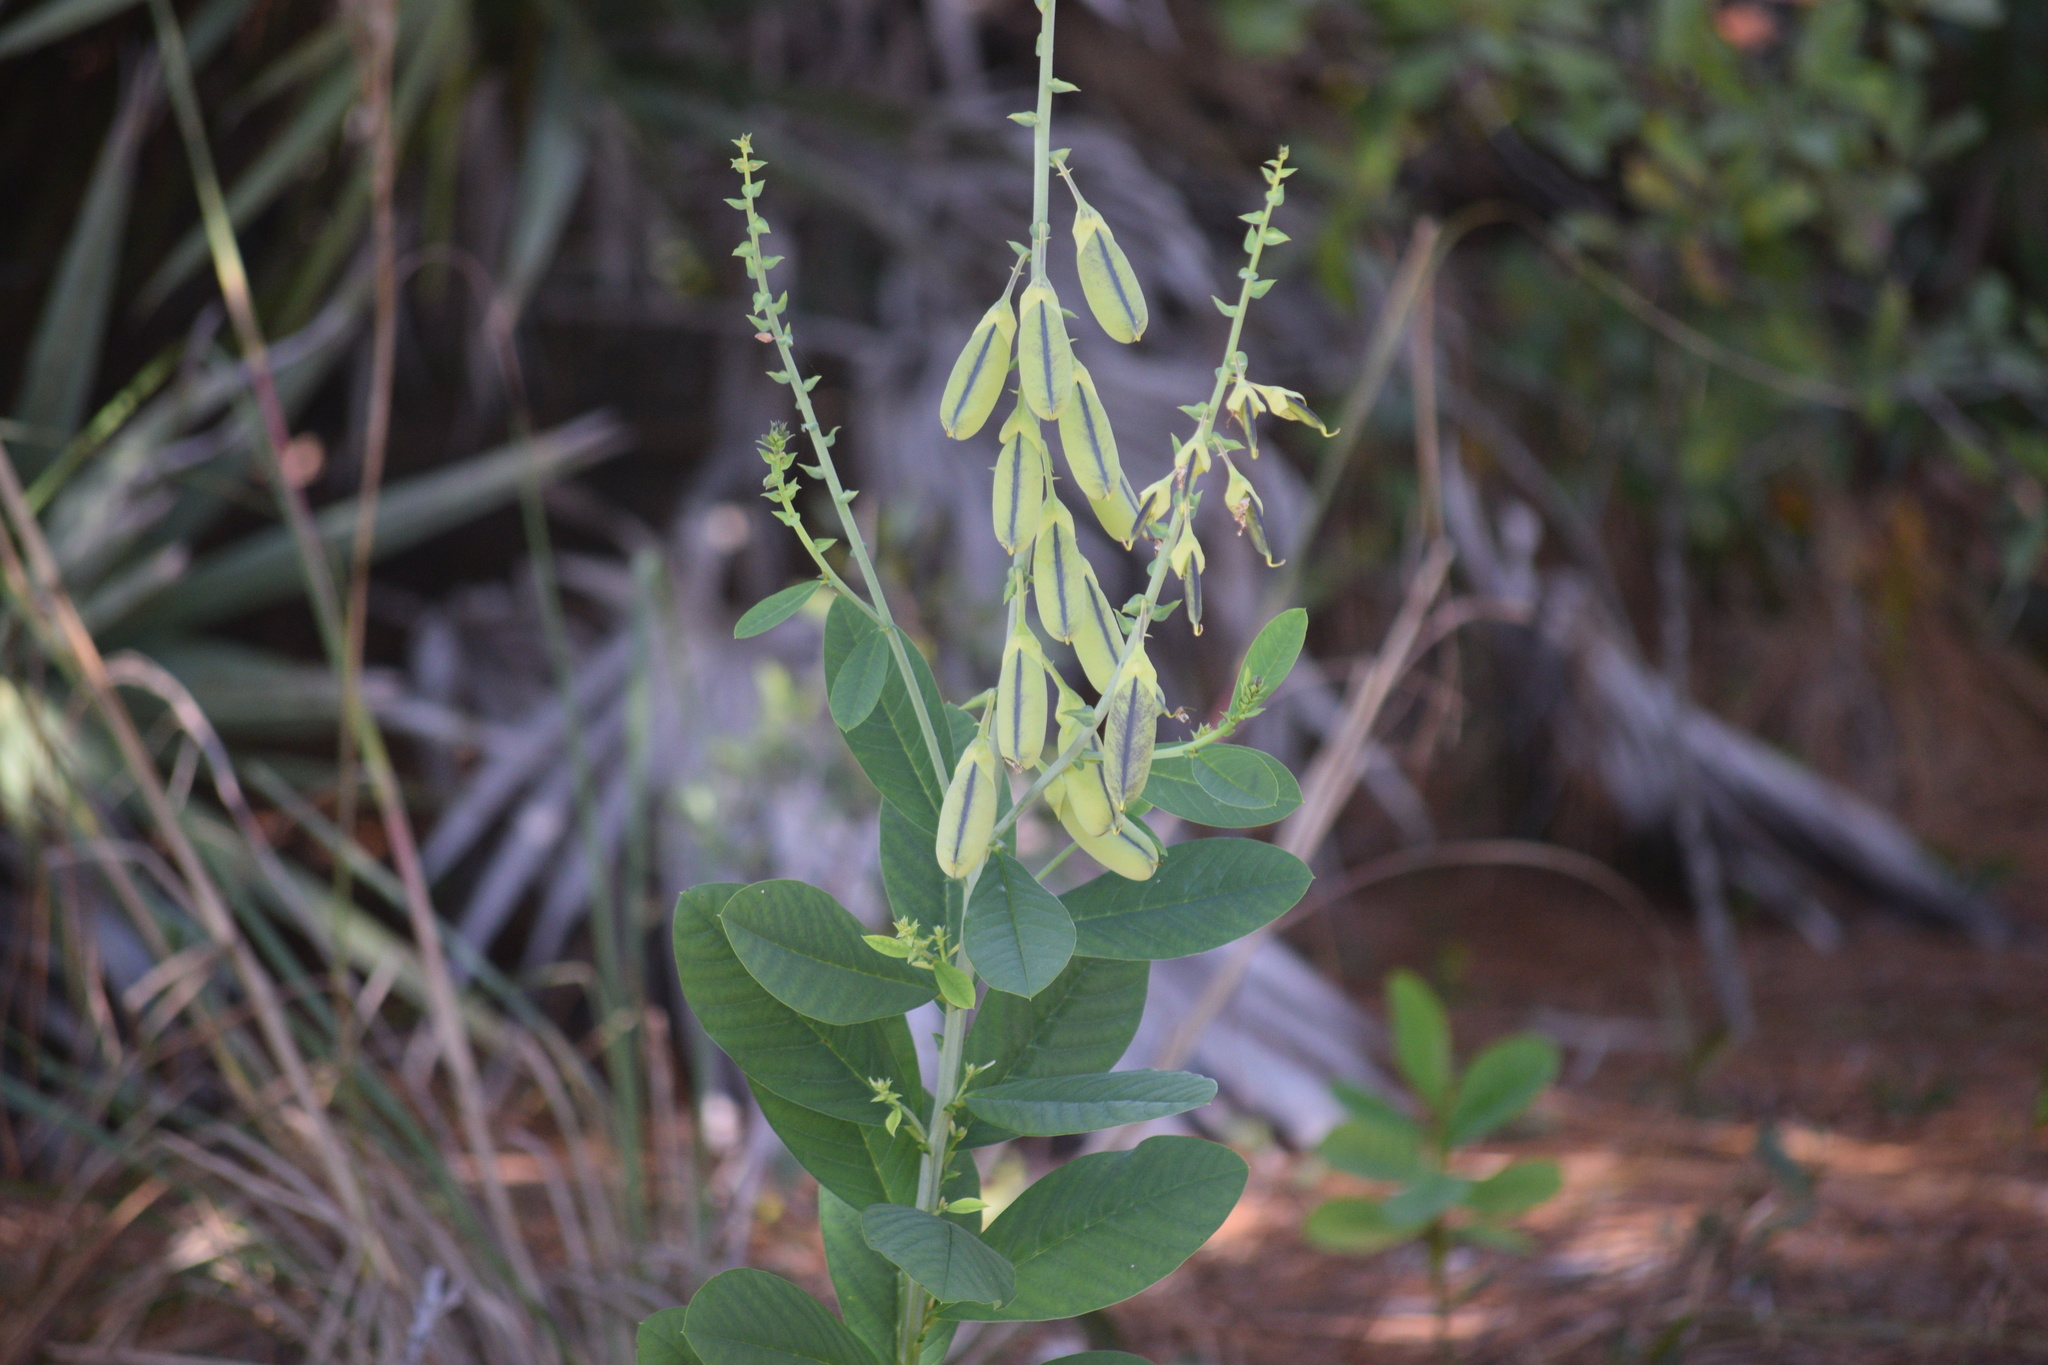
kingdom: Plantae
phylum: Tracheophyta
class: Magnoliopsida
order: Fabales
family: Fabaceae
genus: Crotalaria
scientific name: Crotalaria spectabilis
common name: Showy rattlebox
